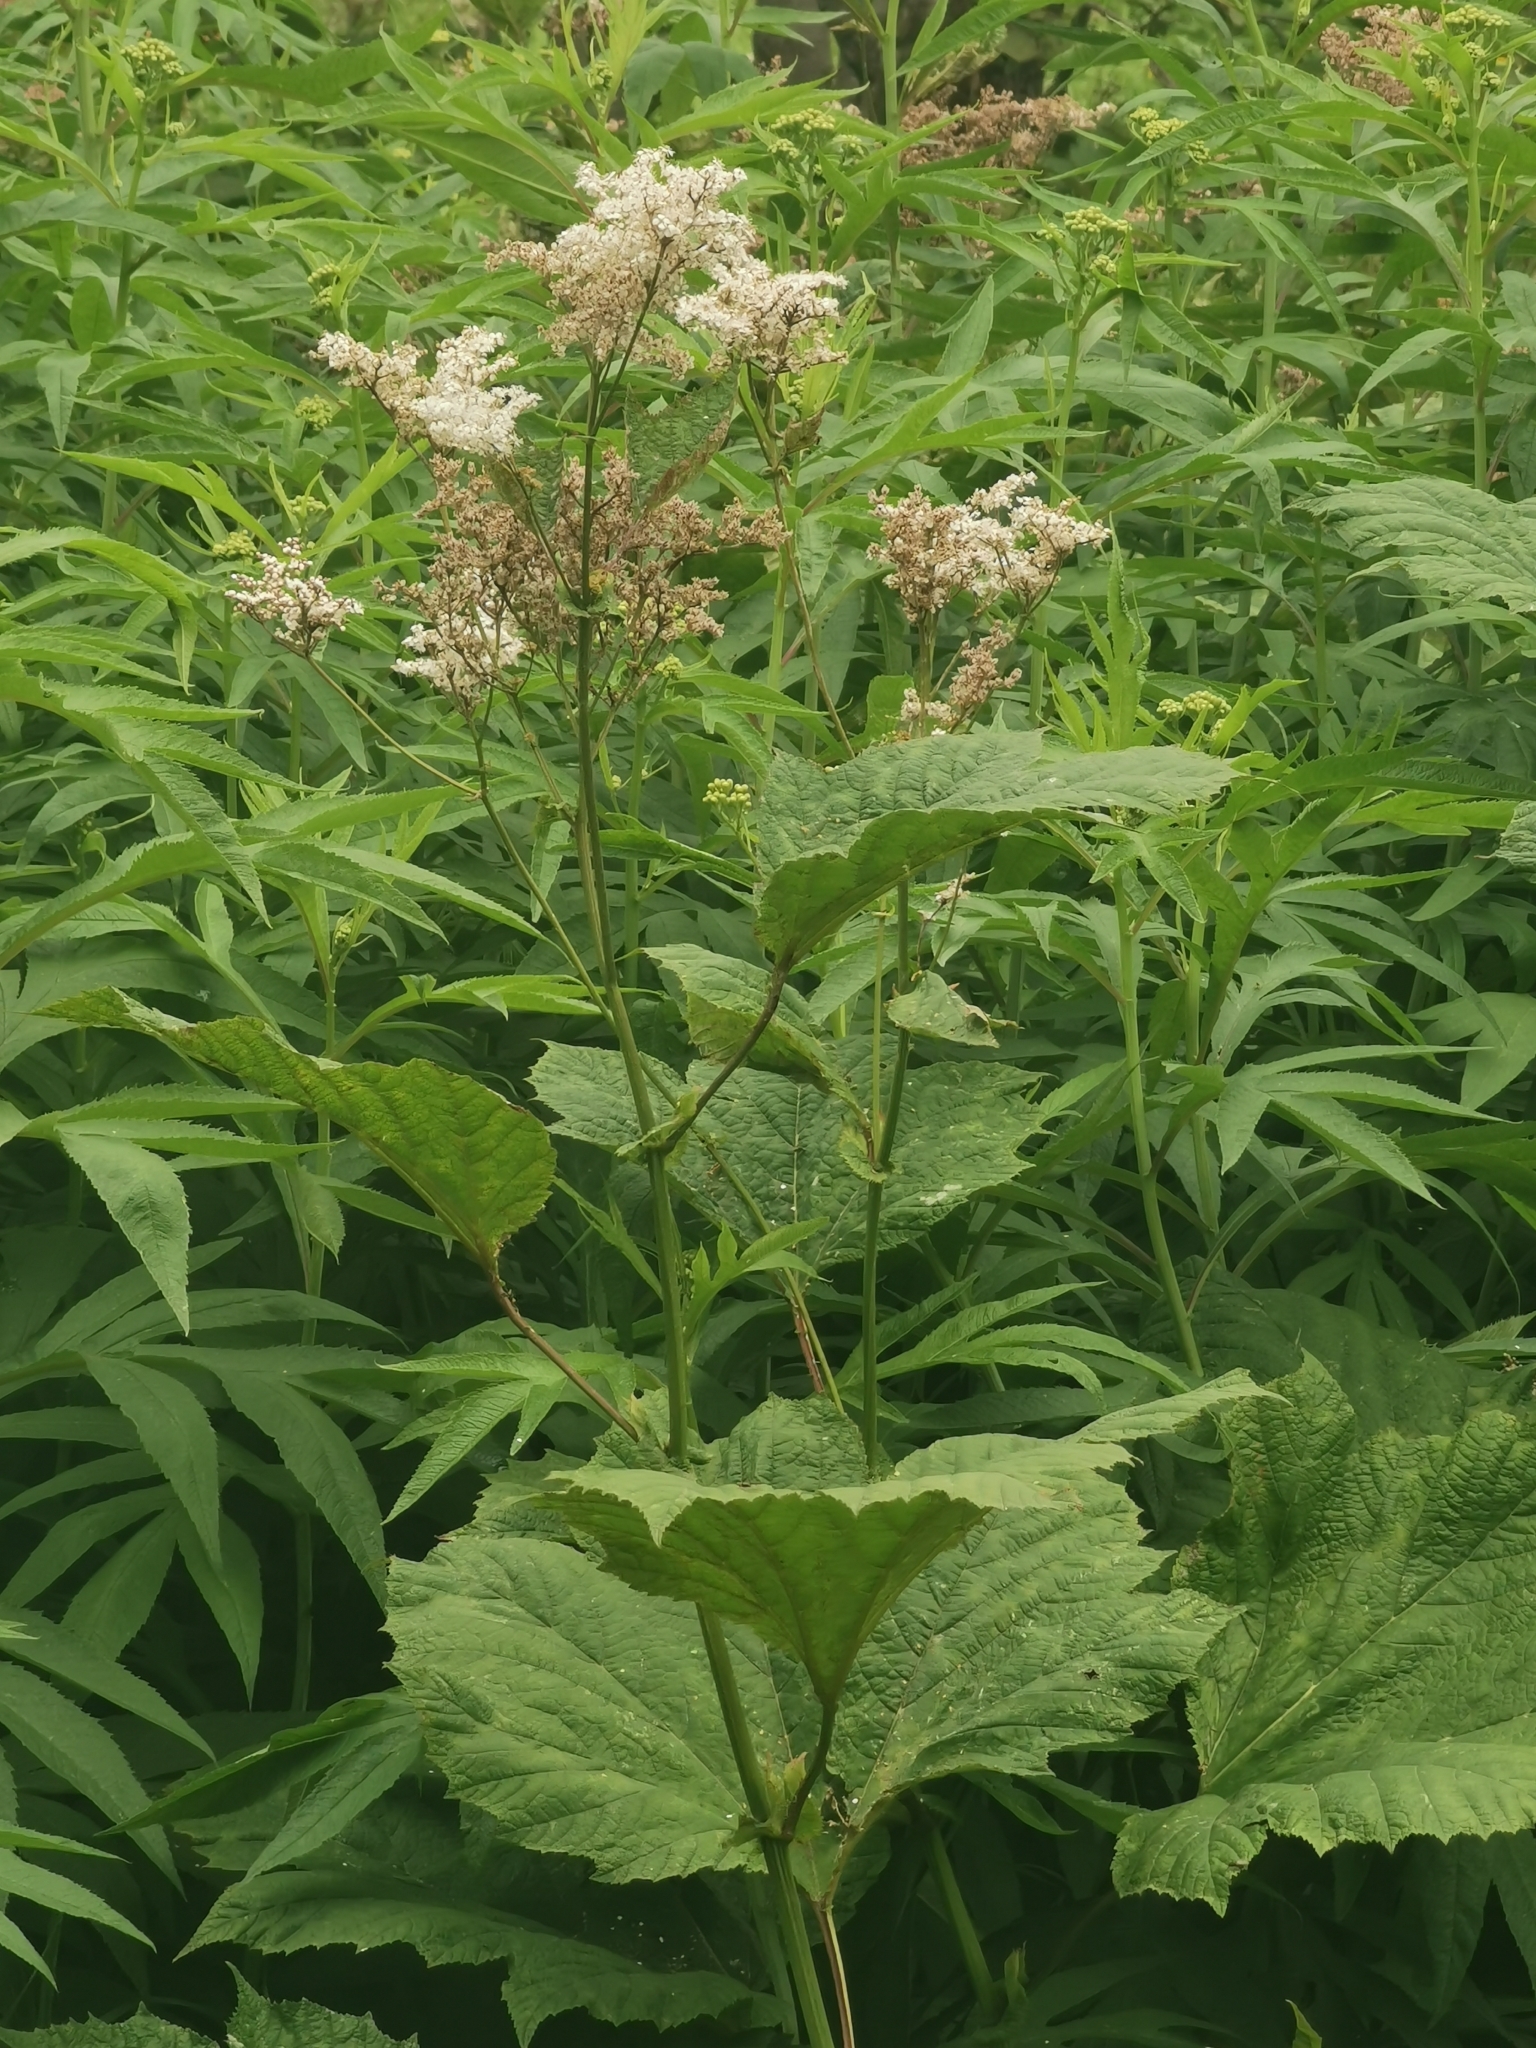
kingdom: Plantae
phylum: Tracheophyta
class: Magnoliopsida
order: Rosales
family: Rosaceae
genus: Filipendula
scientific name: Filipendula camtschatica
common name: Giant meadowsweet
